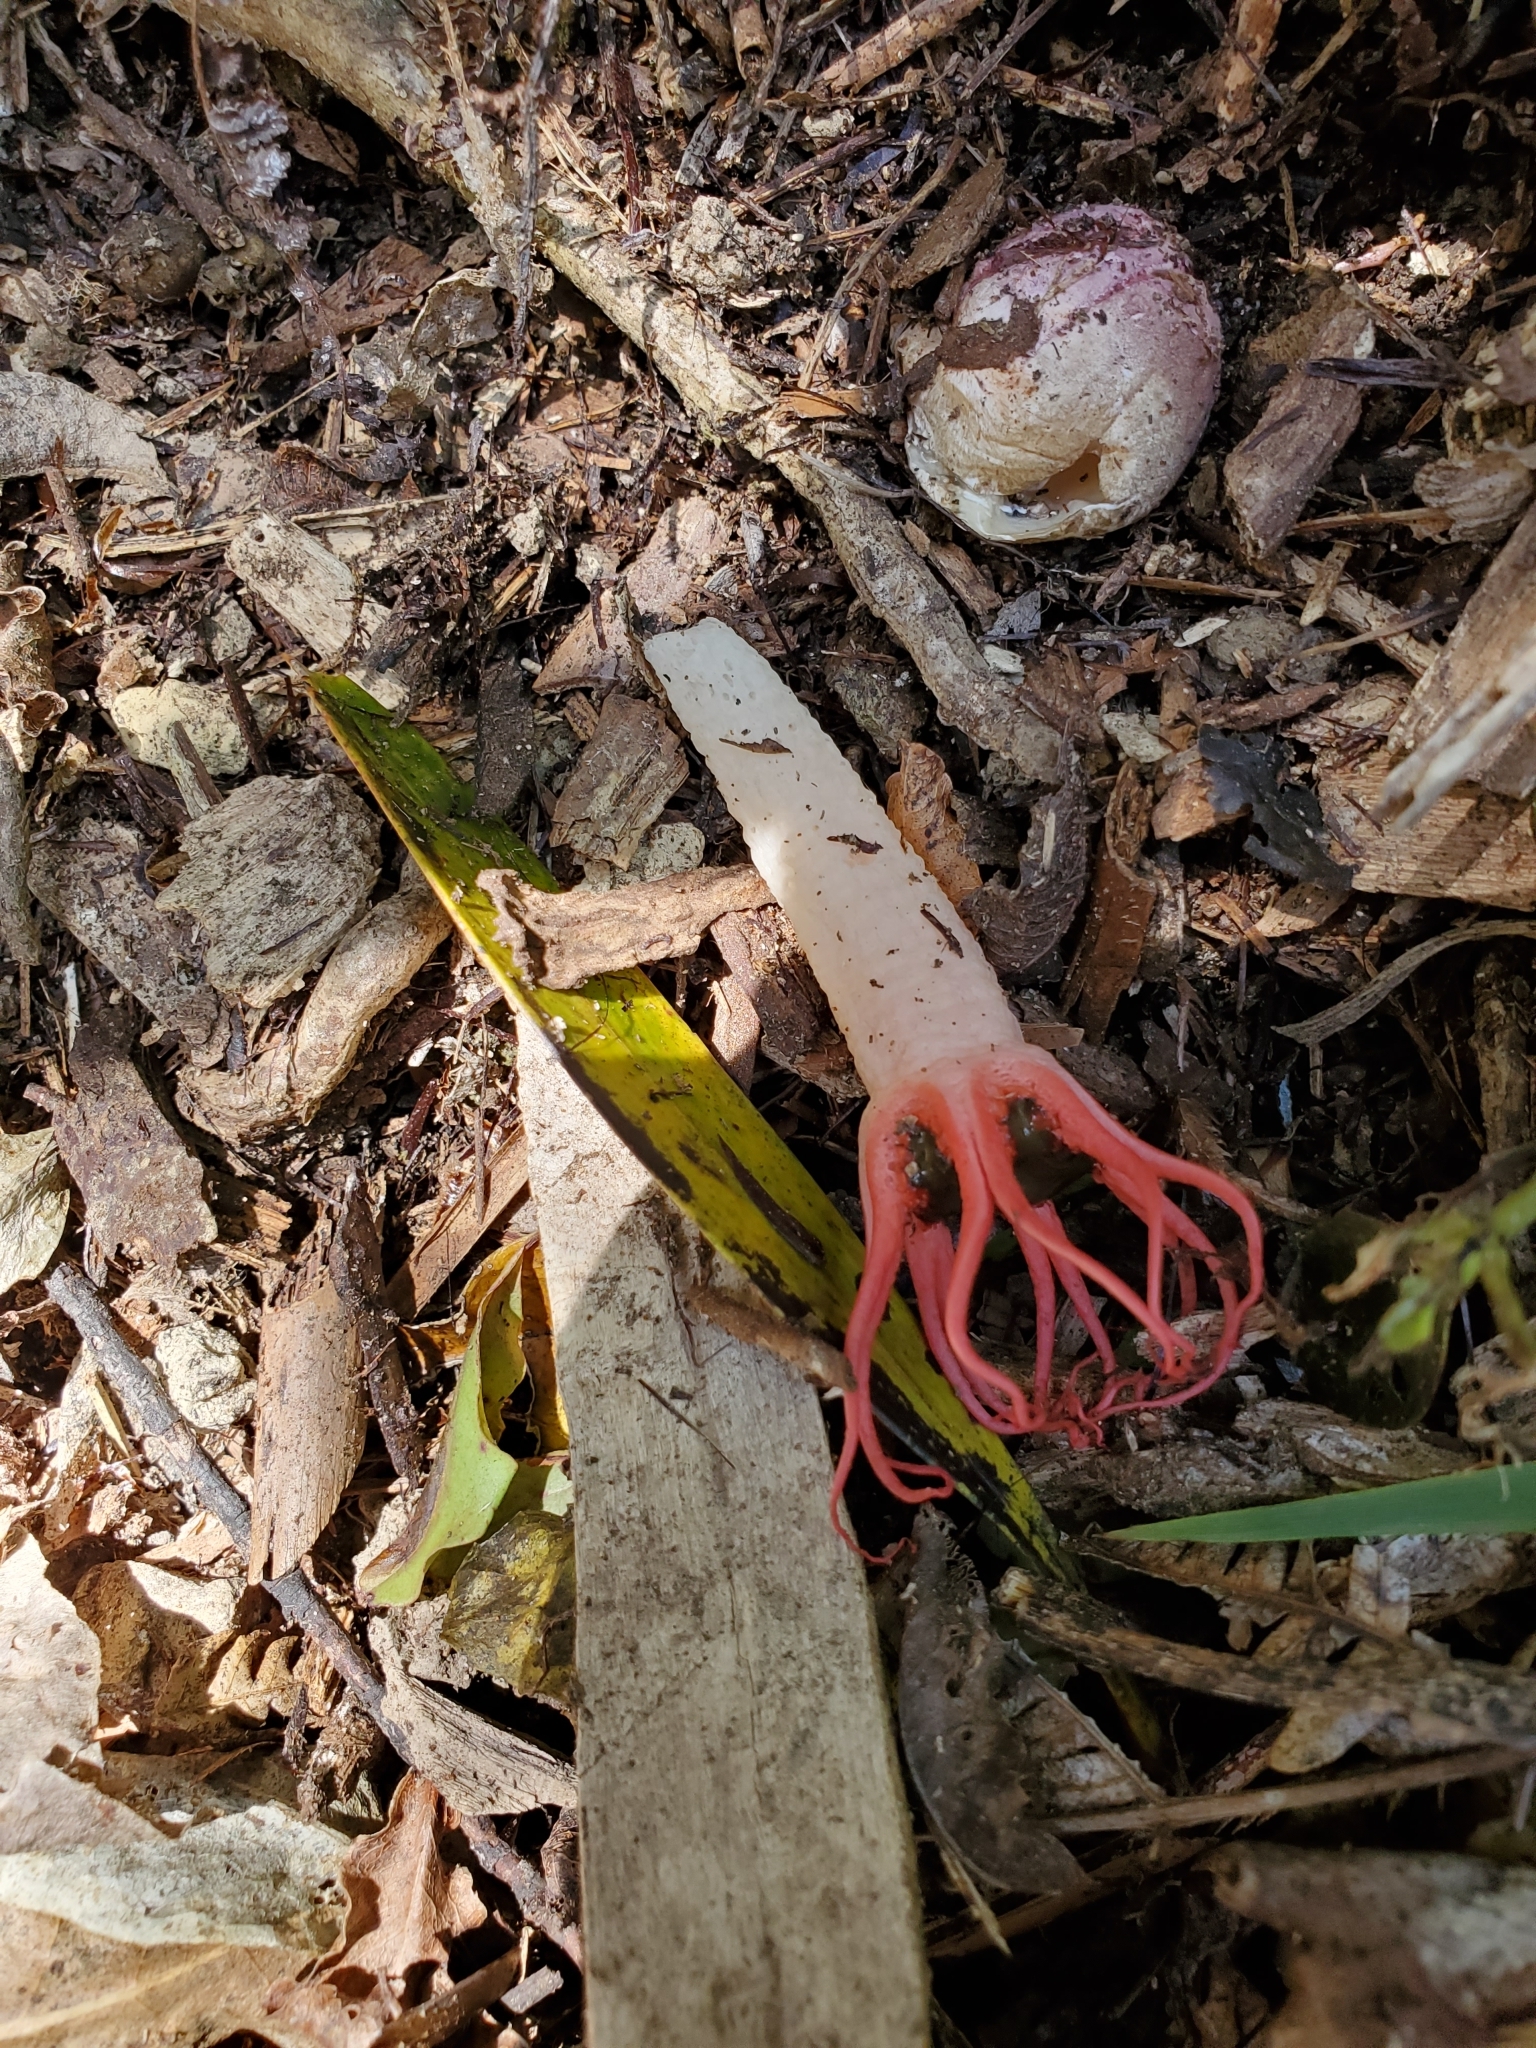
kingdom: Fungi
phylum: Basidiomycota
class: Agaricomycetes
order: Phallales
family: Phallaceae
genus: Aseroe
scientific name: Aseroe rubra
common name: Starfish fungus
